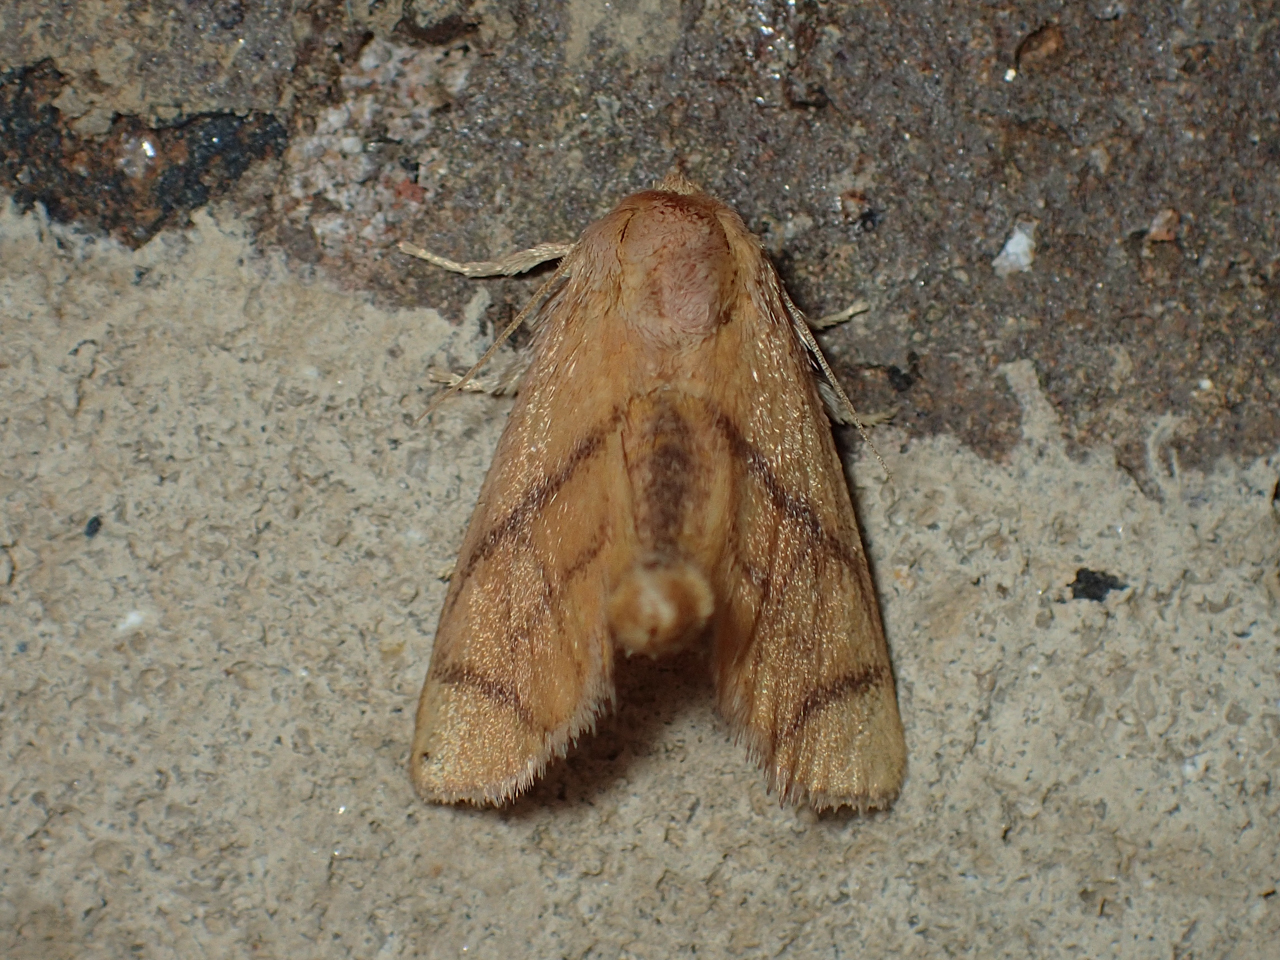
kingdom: Animalia
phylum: Arthropoda
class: Insecta
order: Lepidoptera
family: Limacodidae
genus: Apoda
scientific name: Apoda y-inversa
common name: Yellow-collared slug moth
